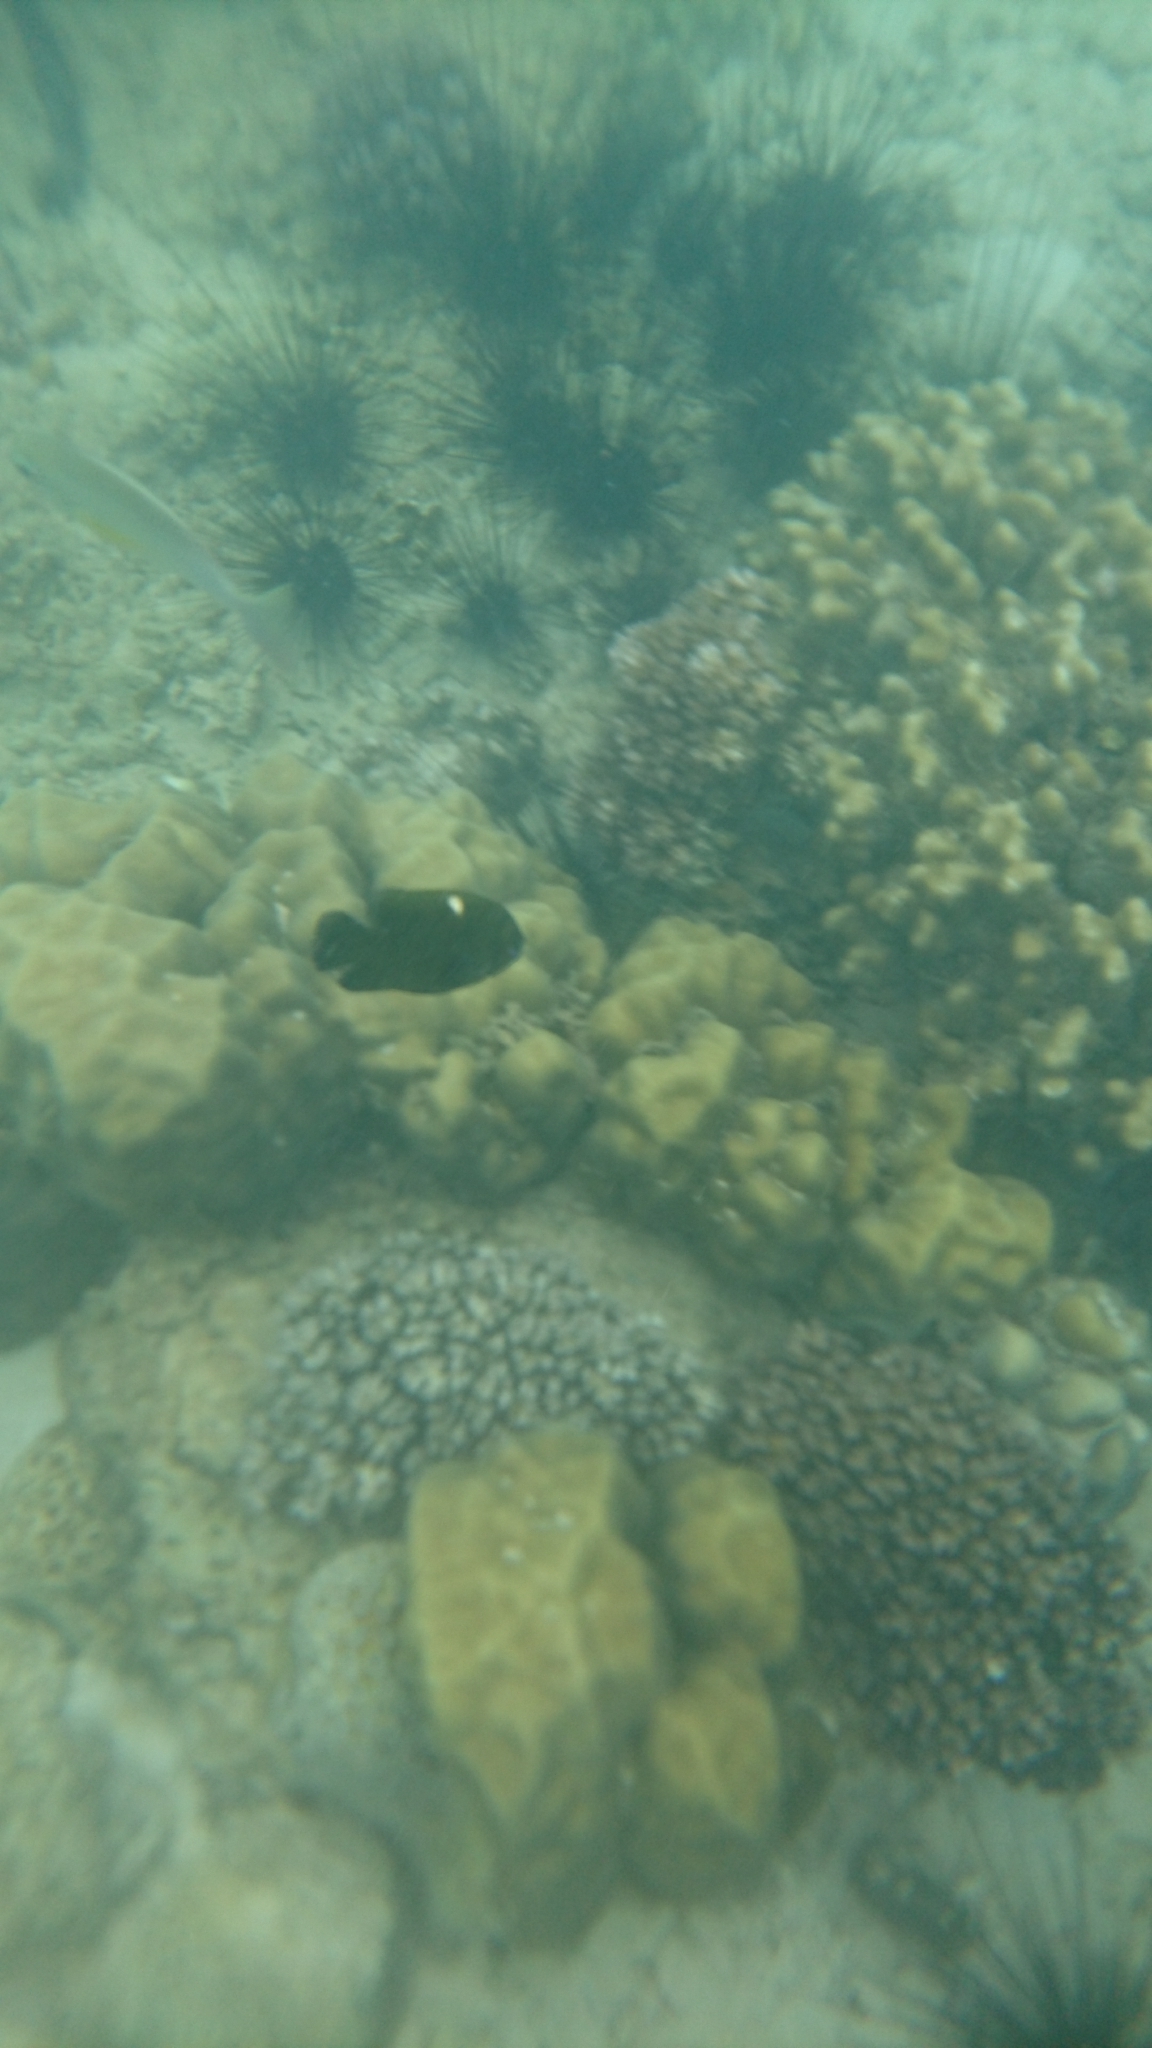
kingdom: Animalia
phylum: Chordata
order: Perciformes
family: Pomacentridae
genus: Dischistodus
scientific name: Dischistodus pseudochrysopoecilus
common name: Monarch damsel
